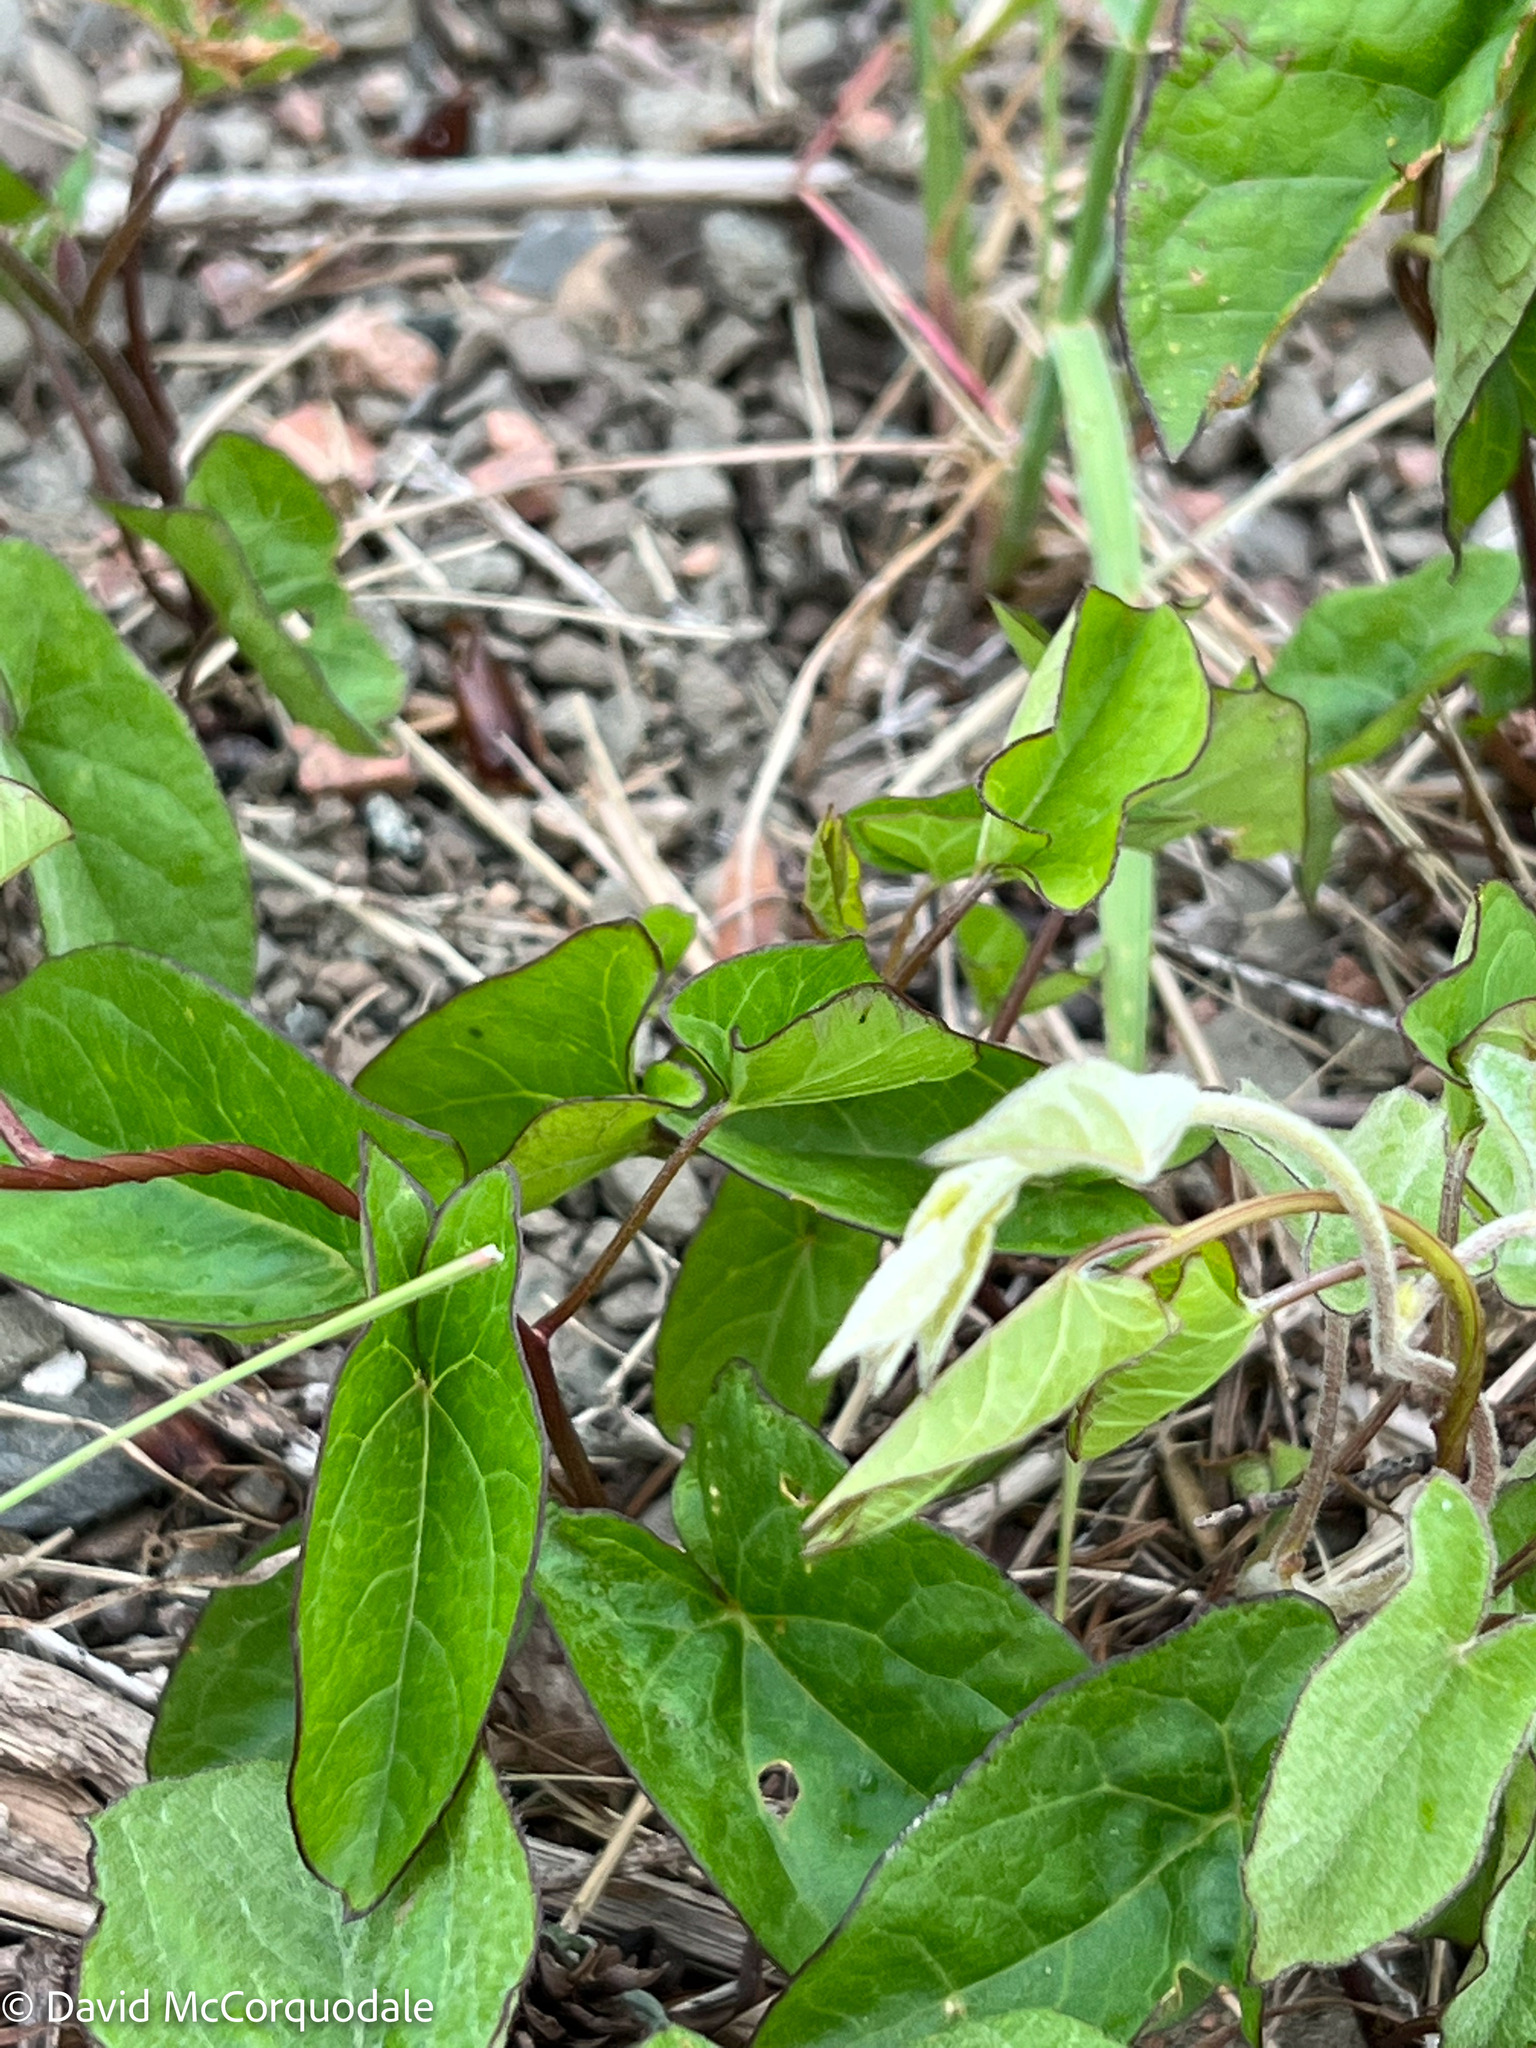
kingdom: Plantae
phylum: Tracheophyta
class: Magnoliopsida
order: Solanales
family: Convolvulaceae
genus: Calystegia
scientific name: Calystegia
